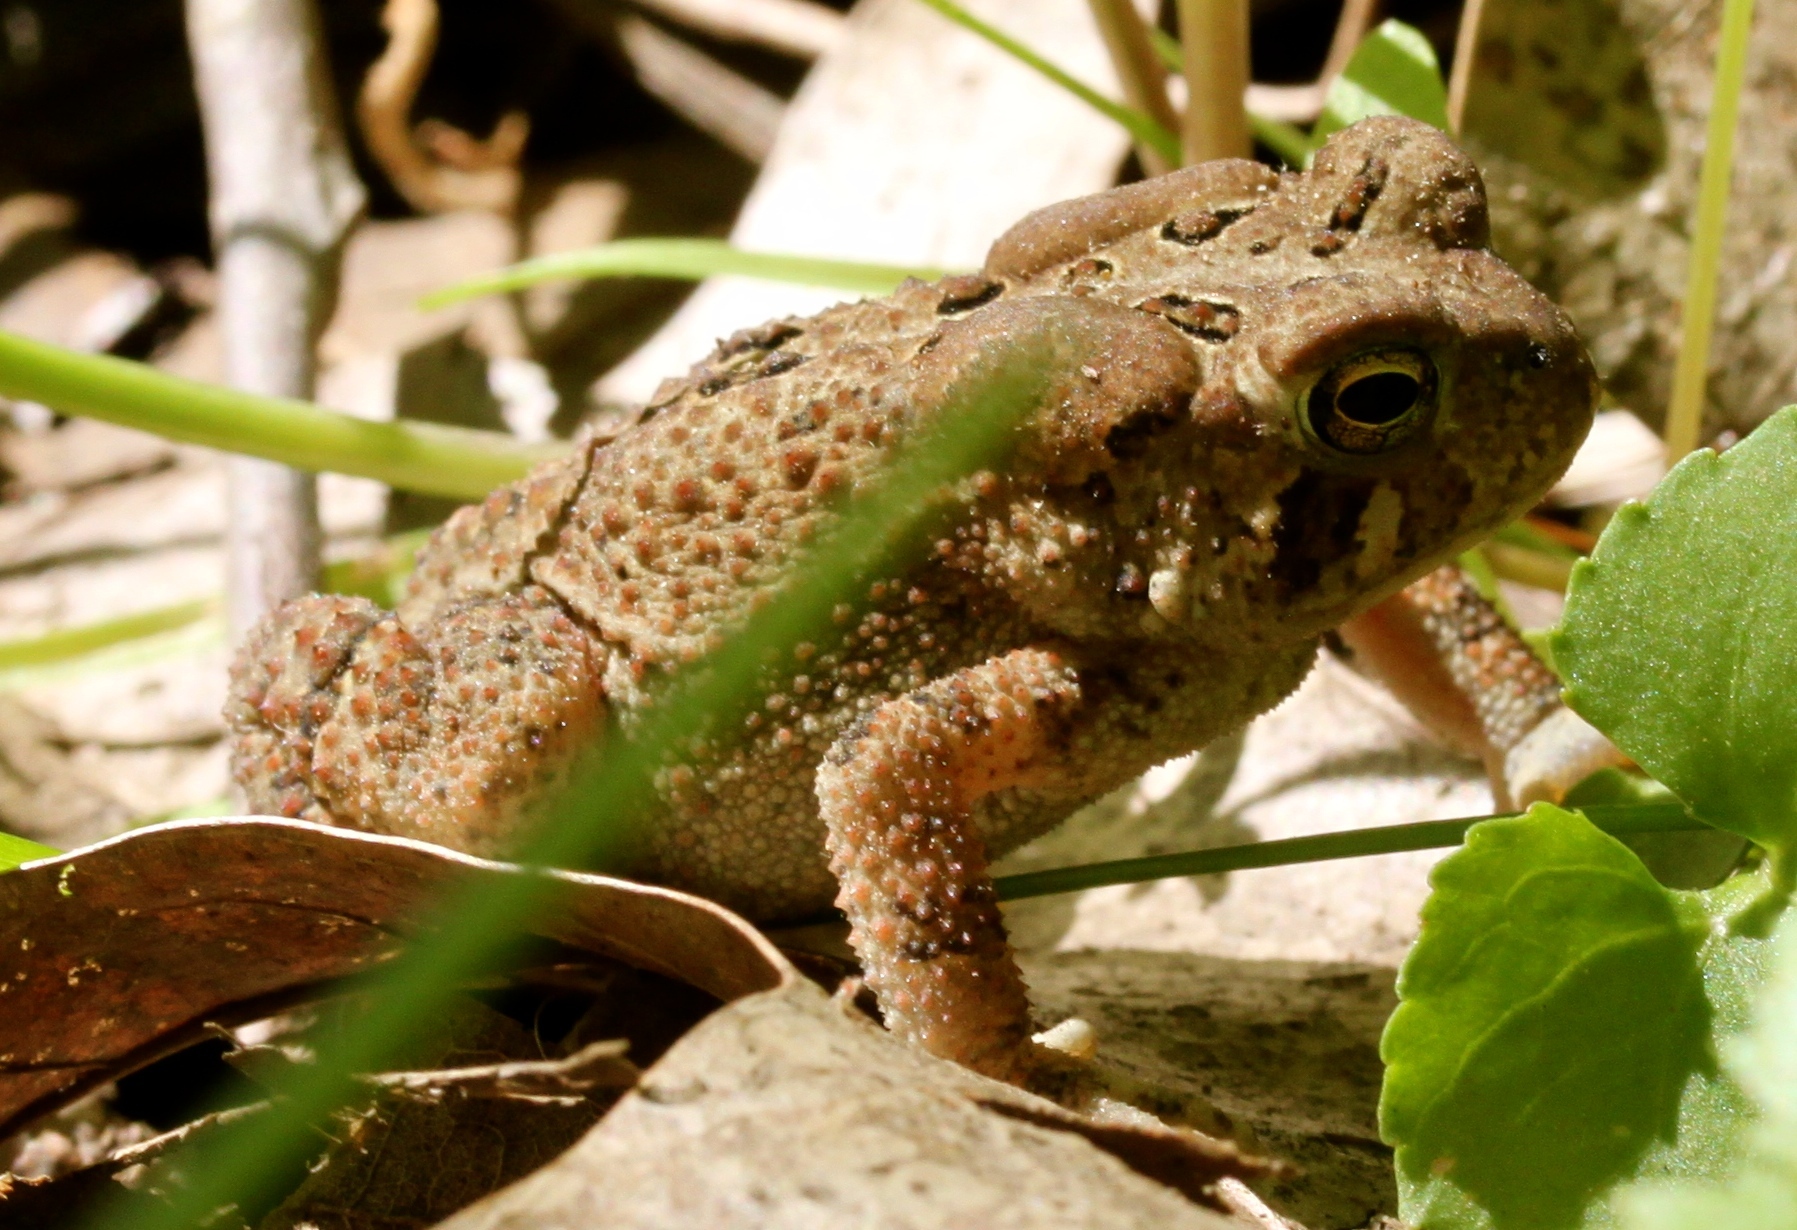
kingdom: Animalia
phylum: Chordata
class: Amphibia
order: Anura
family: Bufonidae
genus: Anaxyrus
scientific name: Anaxyrus americanus
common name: American toad
